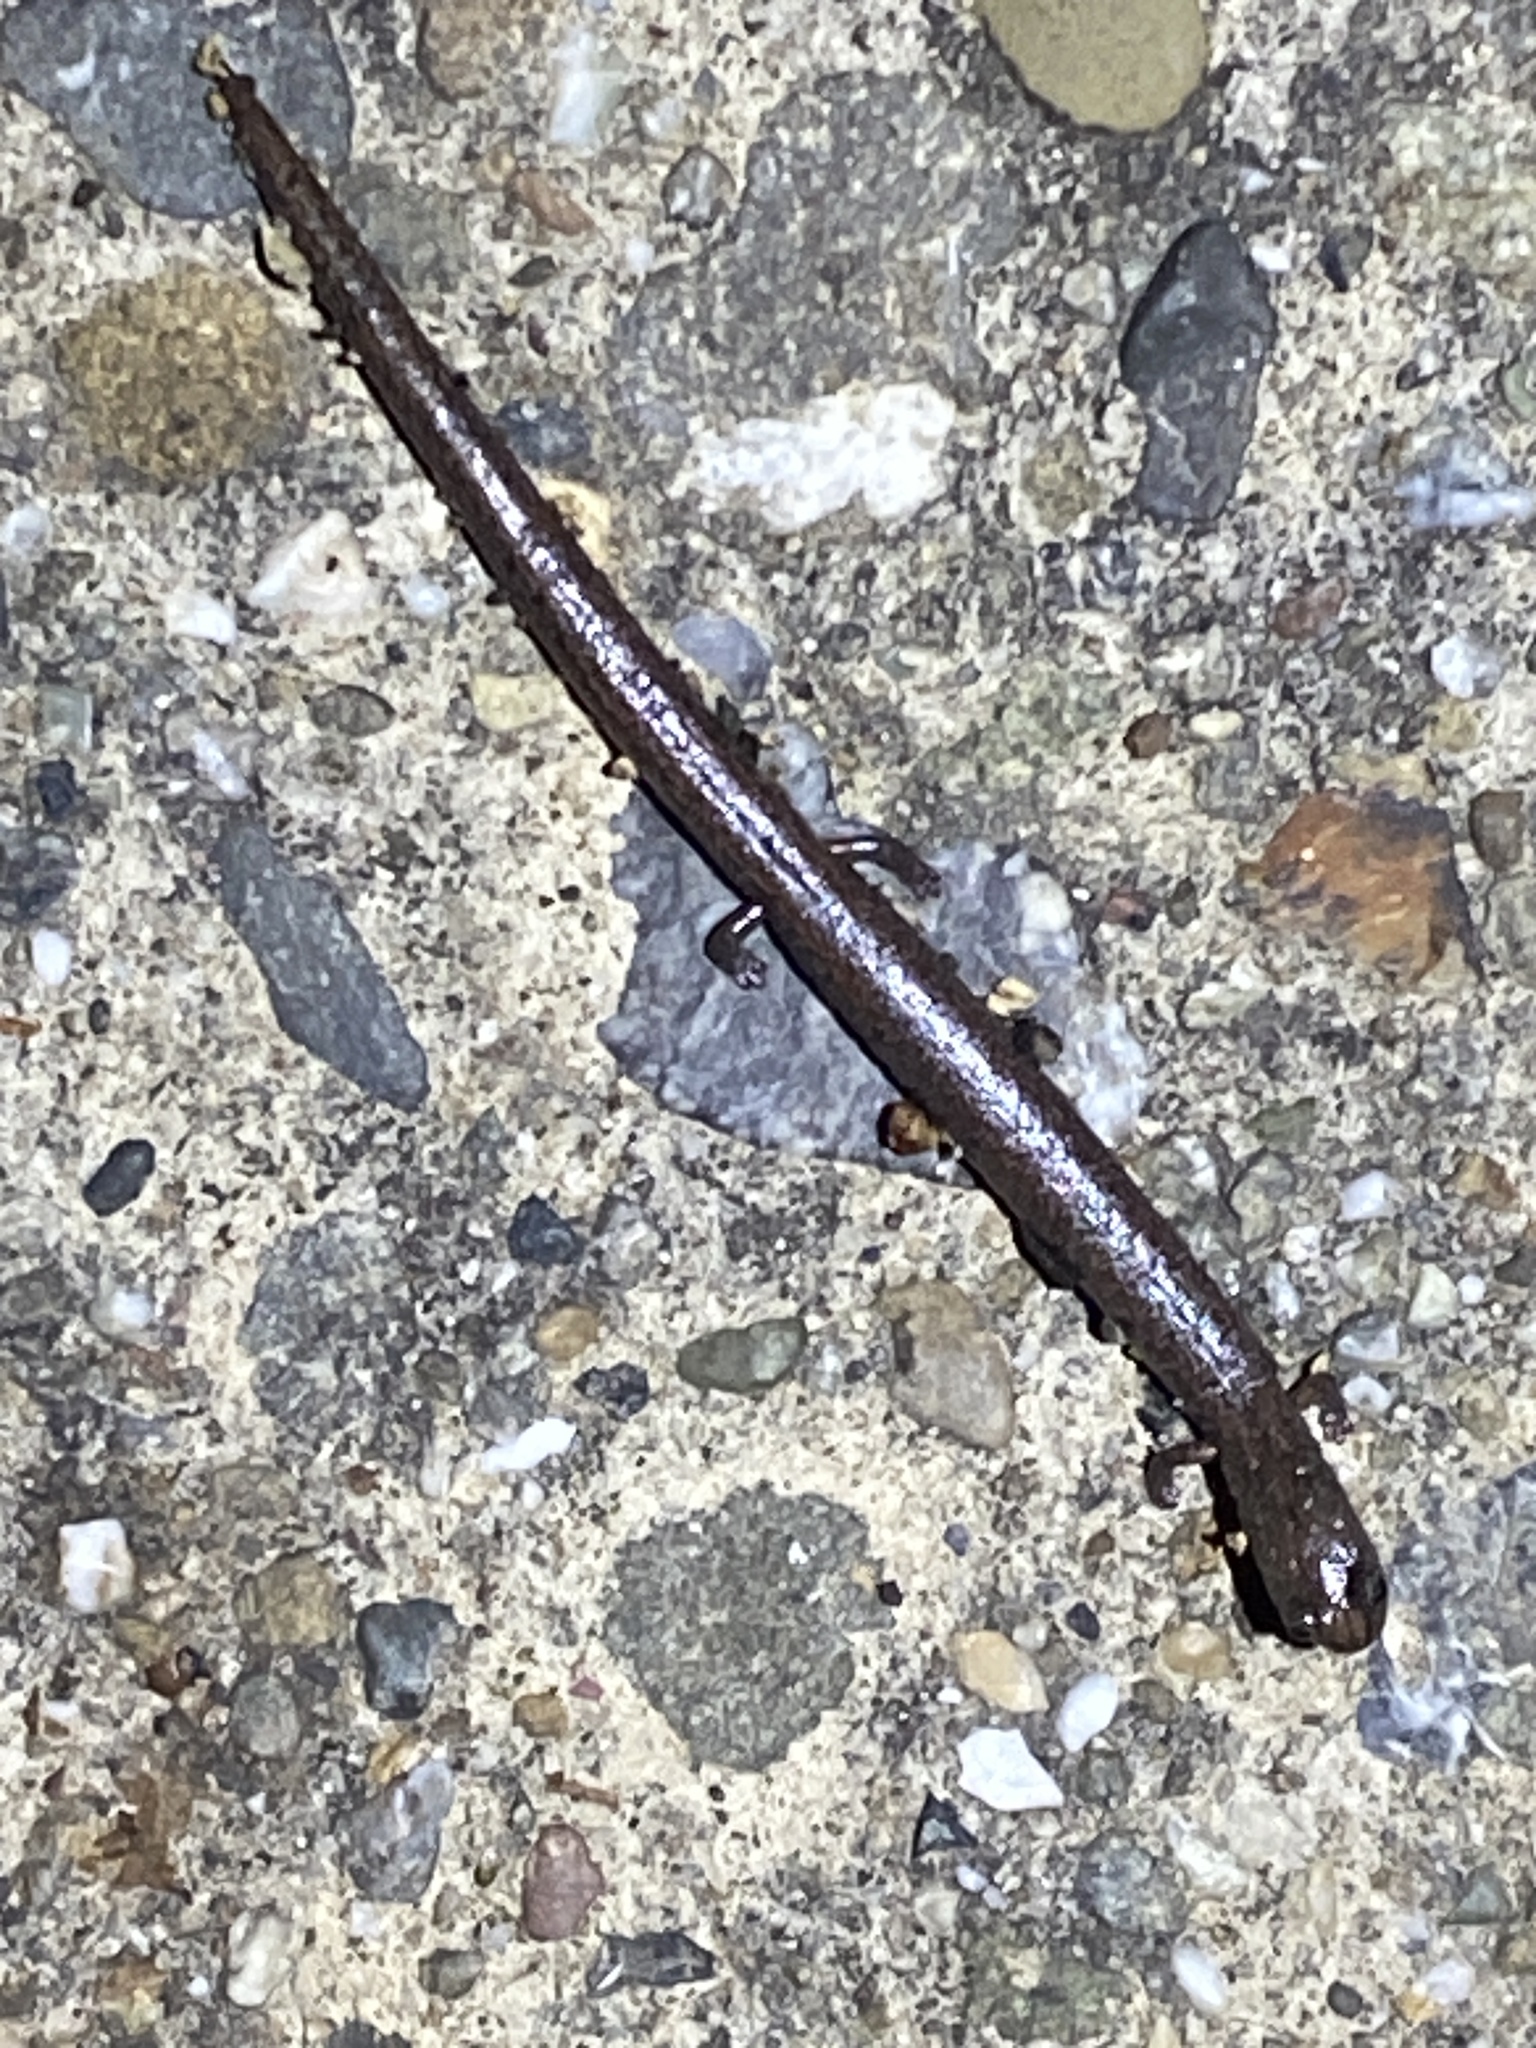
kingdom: Animalia
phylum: Chordata
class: Amphibia
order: Caudata
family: Plethodontidae
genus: Batrachoseps
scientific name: Batrachoseps attenuatus
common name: California slender salamander
